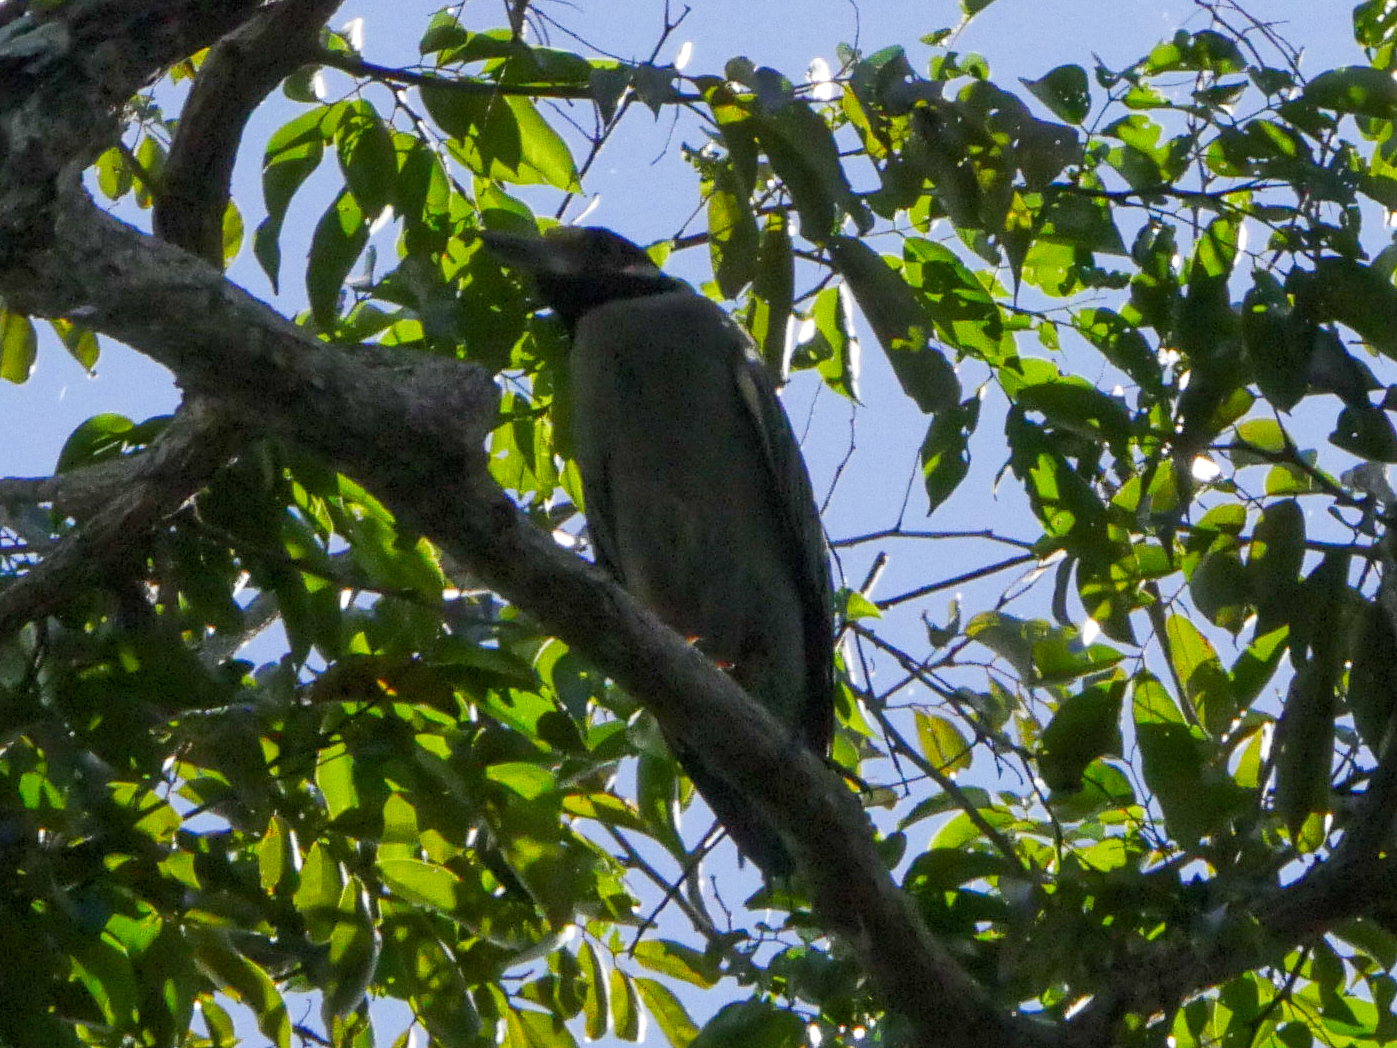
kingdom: Animalia
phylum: Chordata
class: Aves
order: Pelecaniformes
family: Ardeidae
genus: Nyctanassa
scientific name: Nyctanassa violacea
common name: Yellow-crowned night heron
